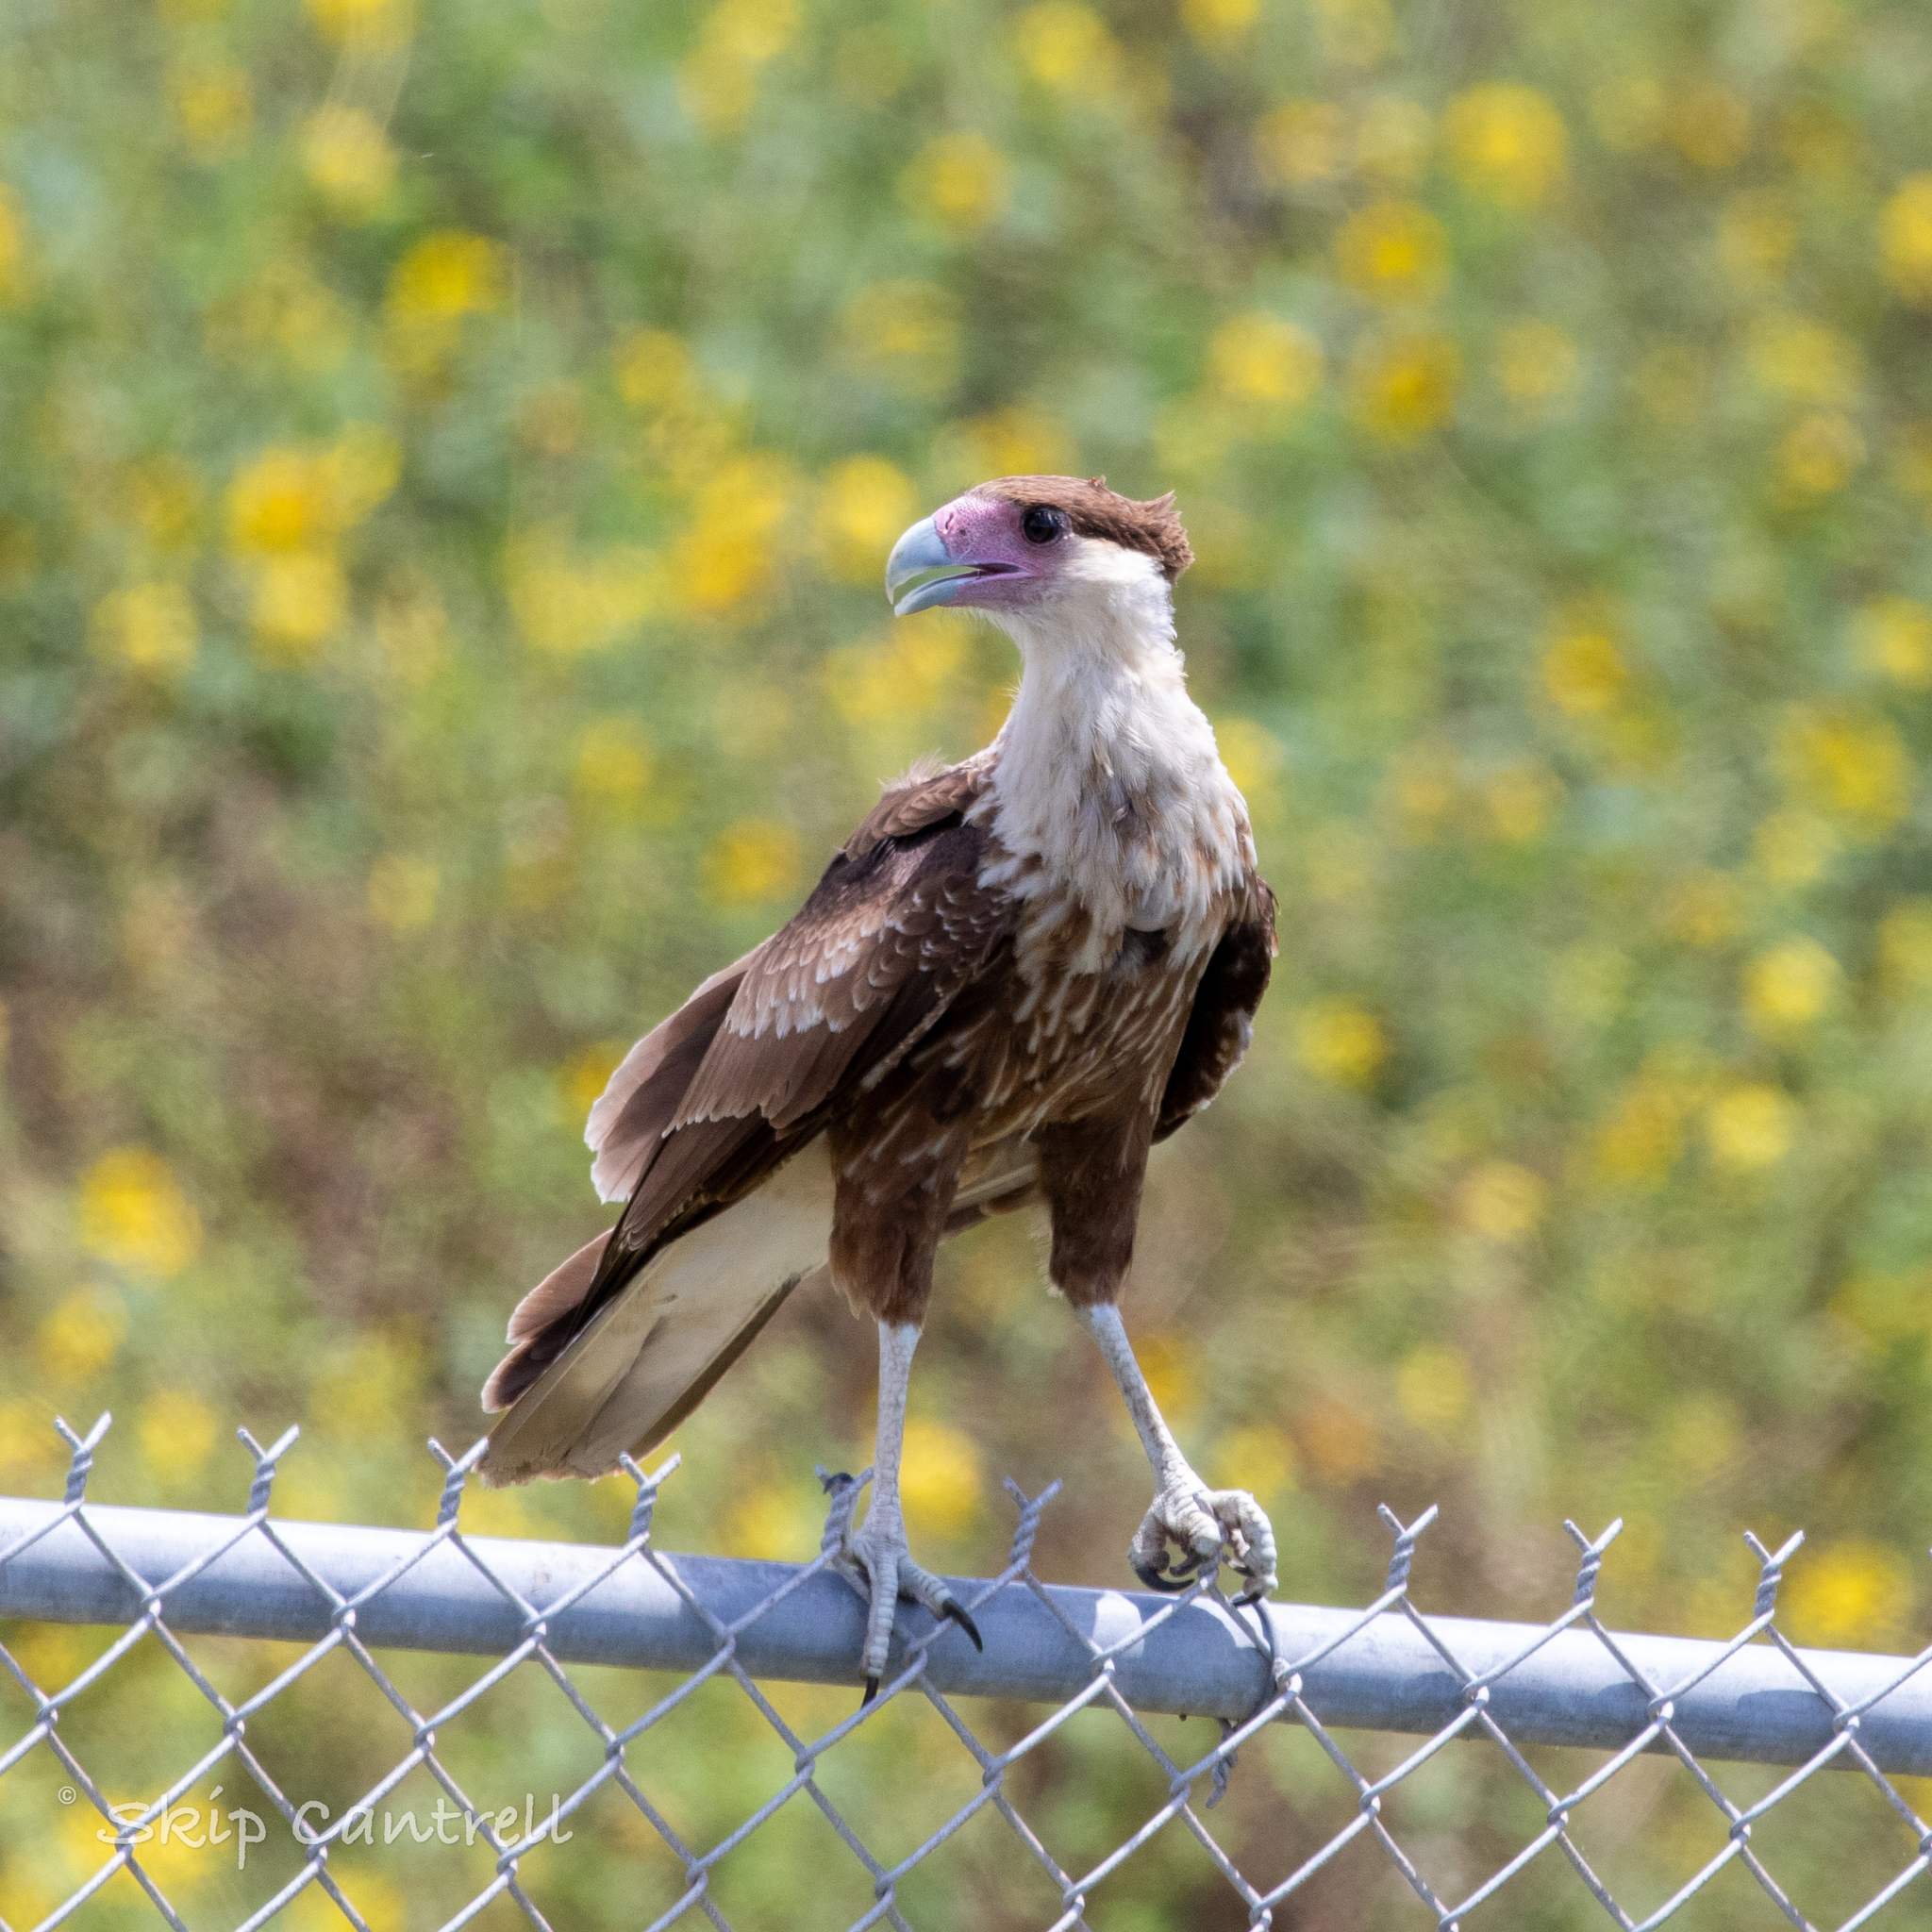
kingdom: Animalia
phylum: Chordata
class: Aves
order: Falconiformes
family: Falconidae
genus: Caracara
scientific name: Caracara plancus
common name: Southern caracara
